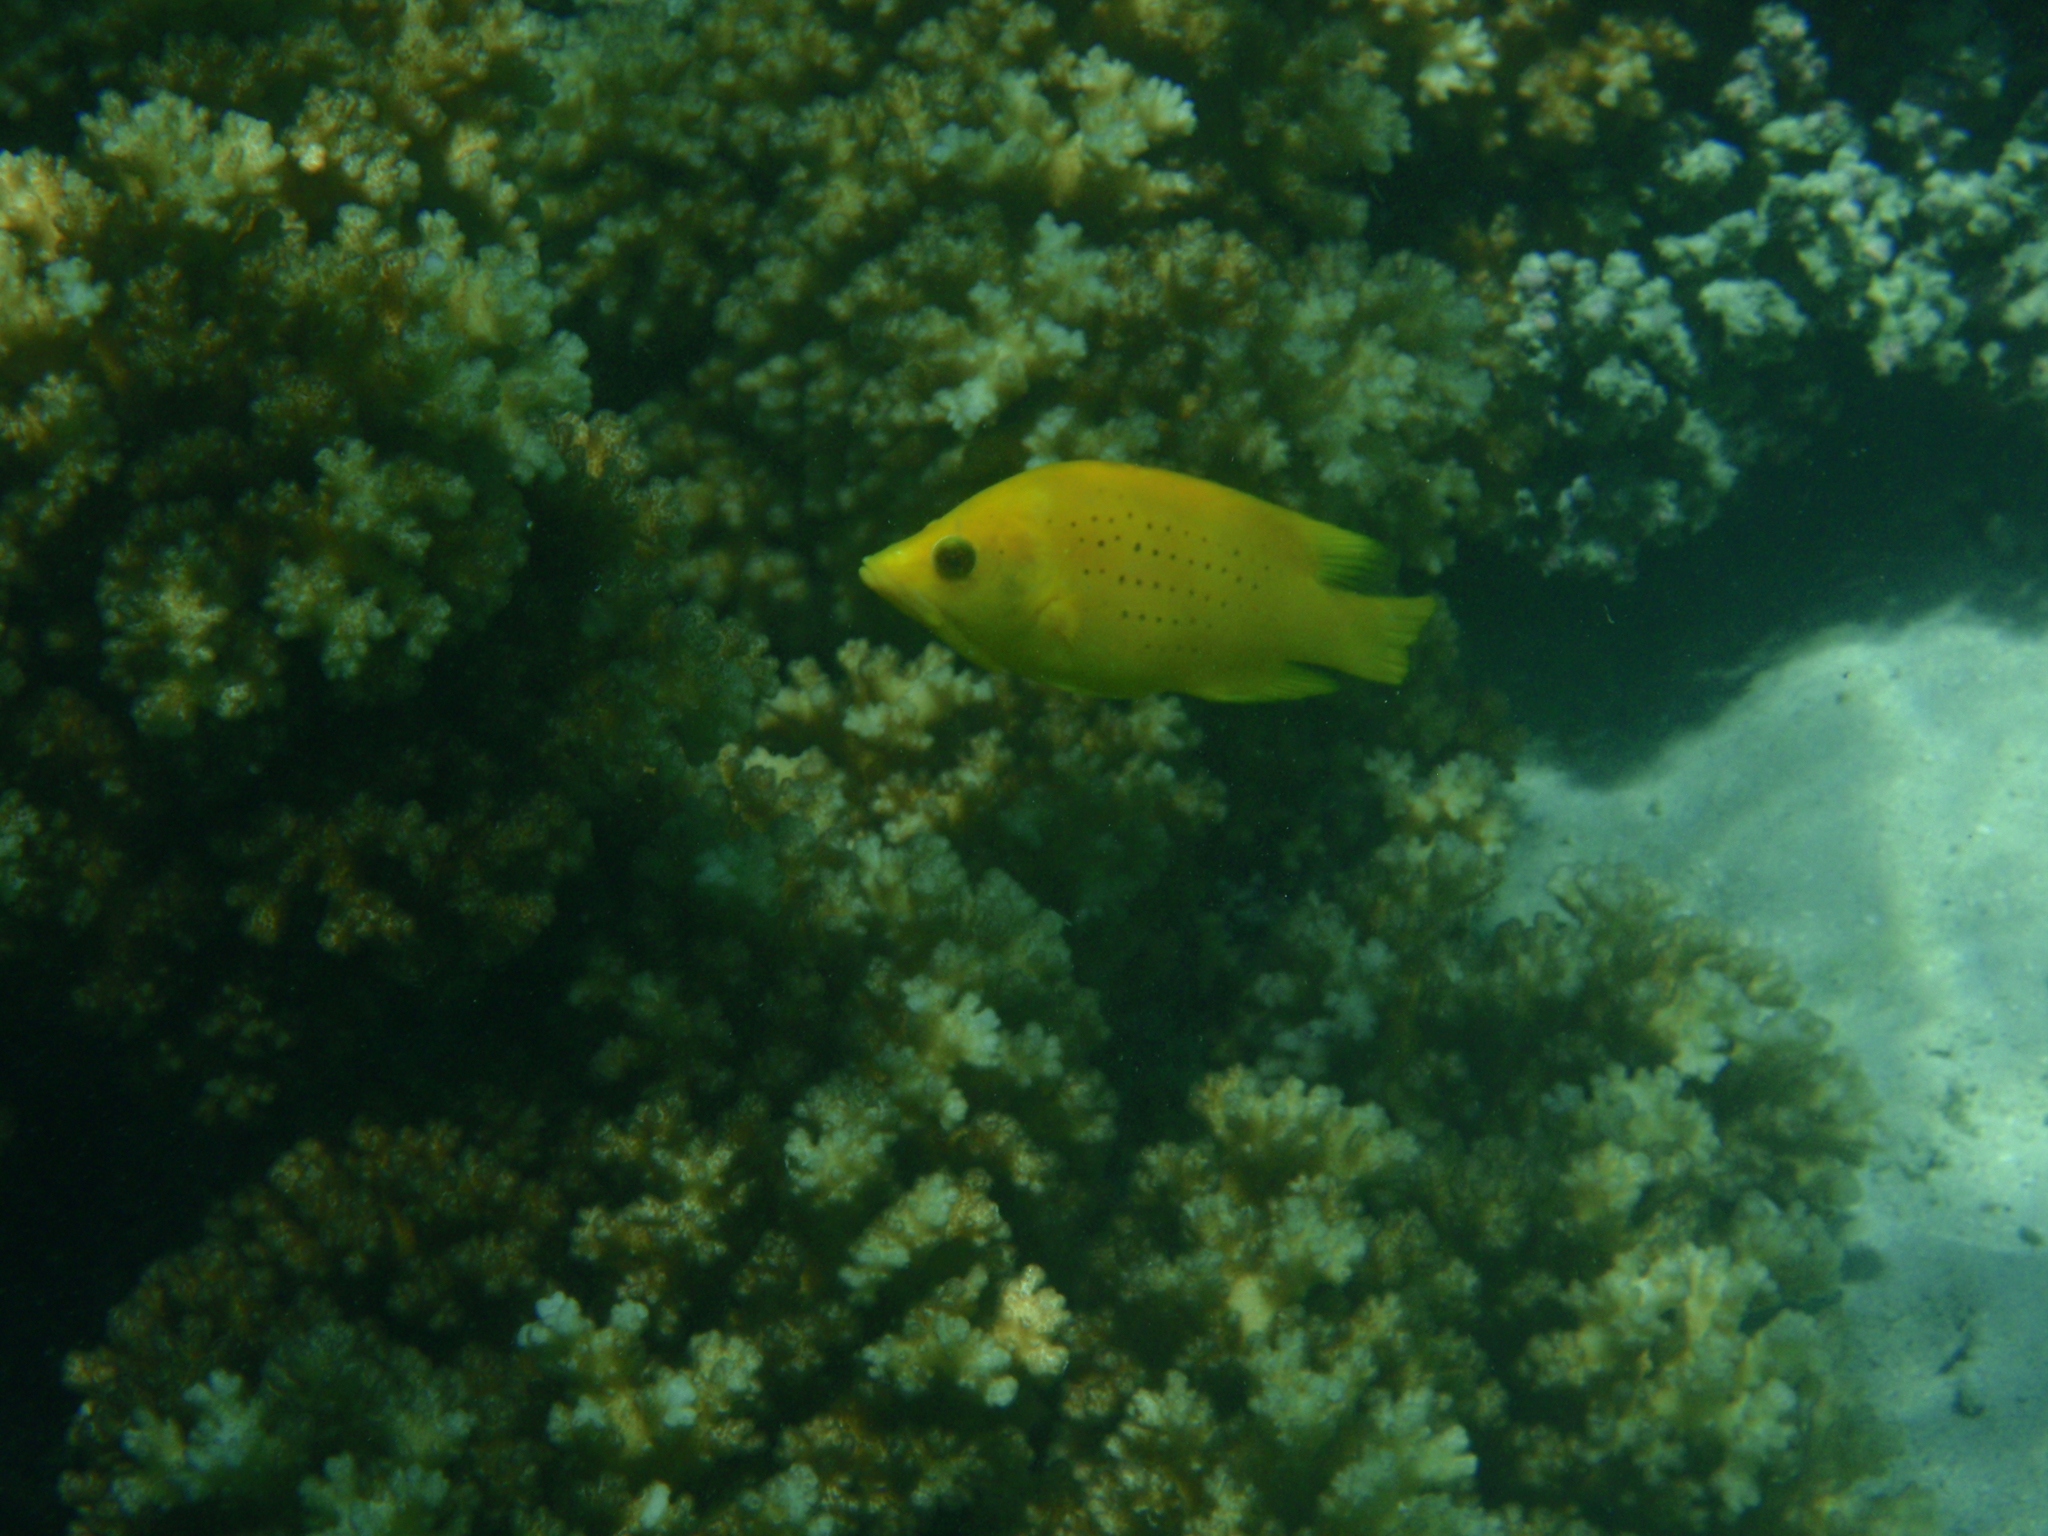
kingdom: Animalia
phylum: Chordata
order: Perciformes
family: Labridae
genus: Epibulus
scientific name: Epibulus insidiator
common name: Slingjaw wrasse
